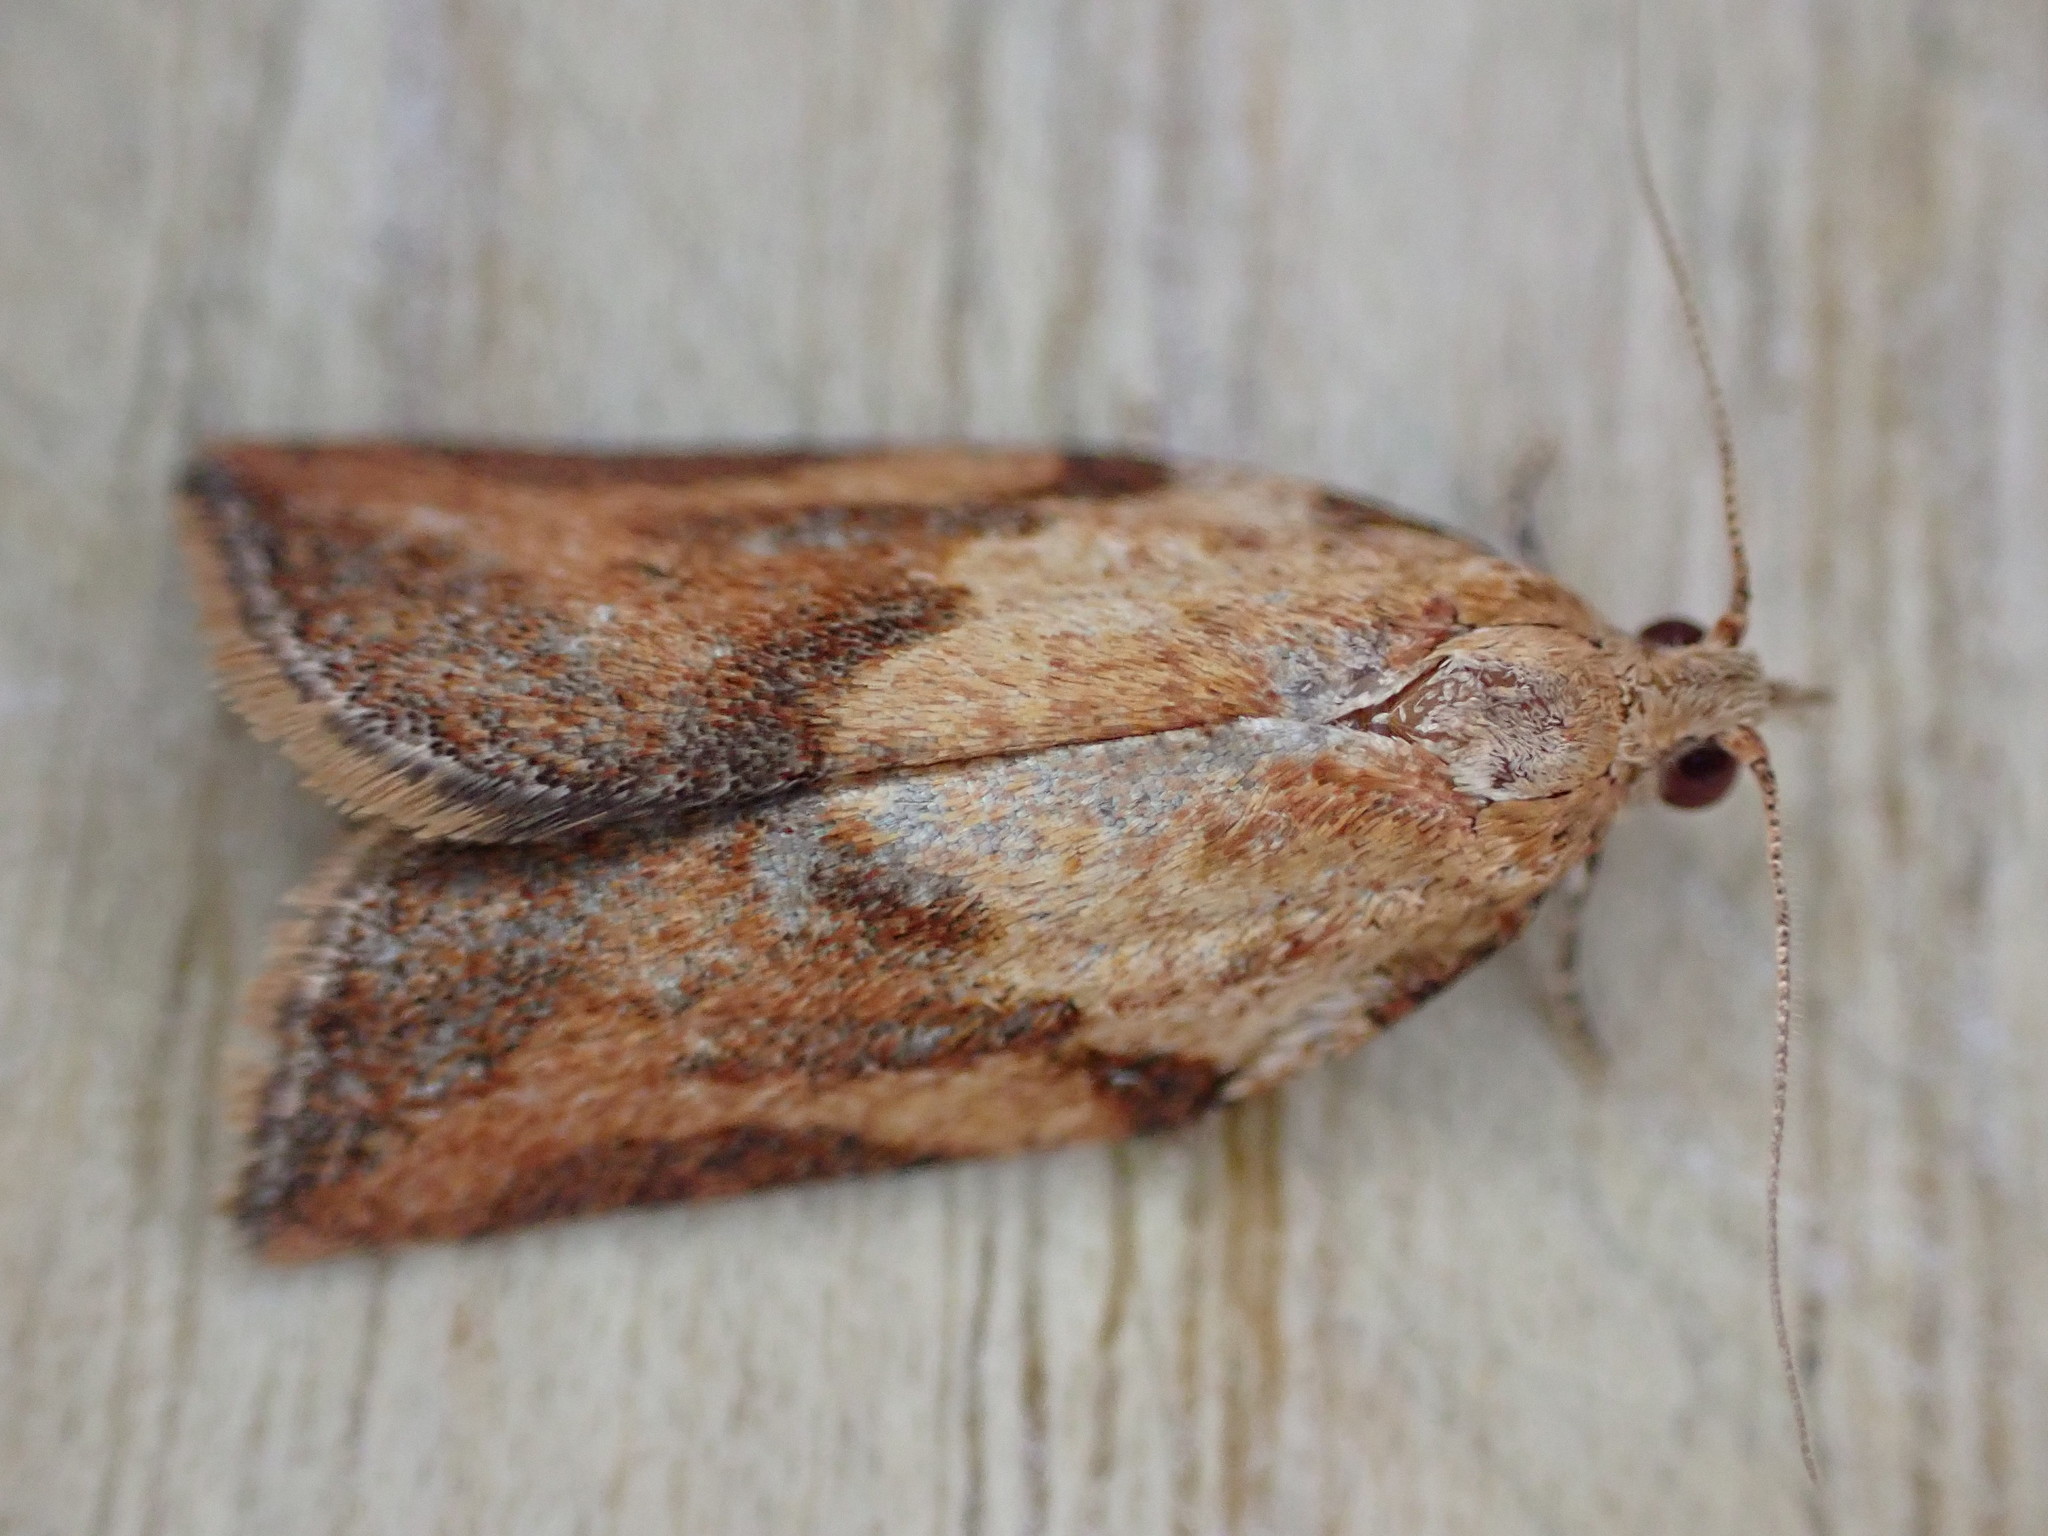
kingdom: Animalia
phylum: Arthropoda
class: Insecta
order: Lepidoptera
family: Tortricidae
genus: Epiphyas
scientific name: Epiphyas postvittana
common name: Light brown apple moth
